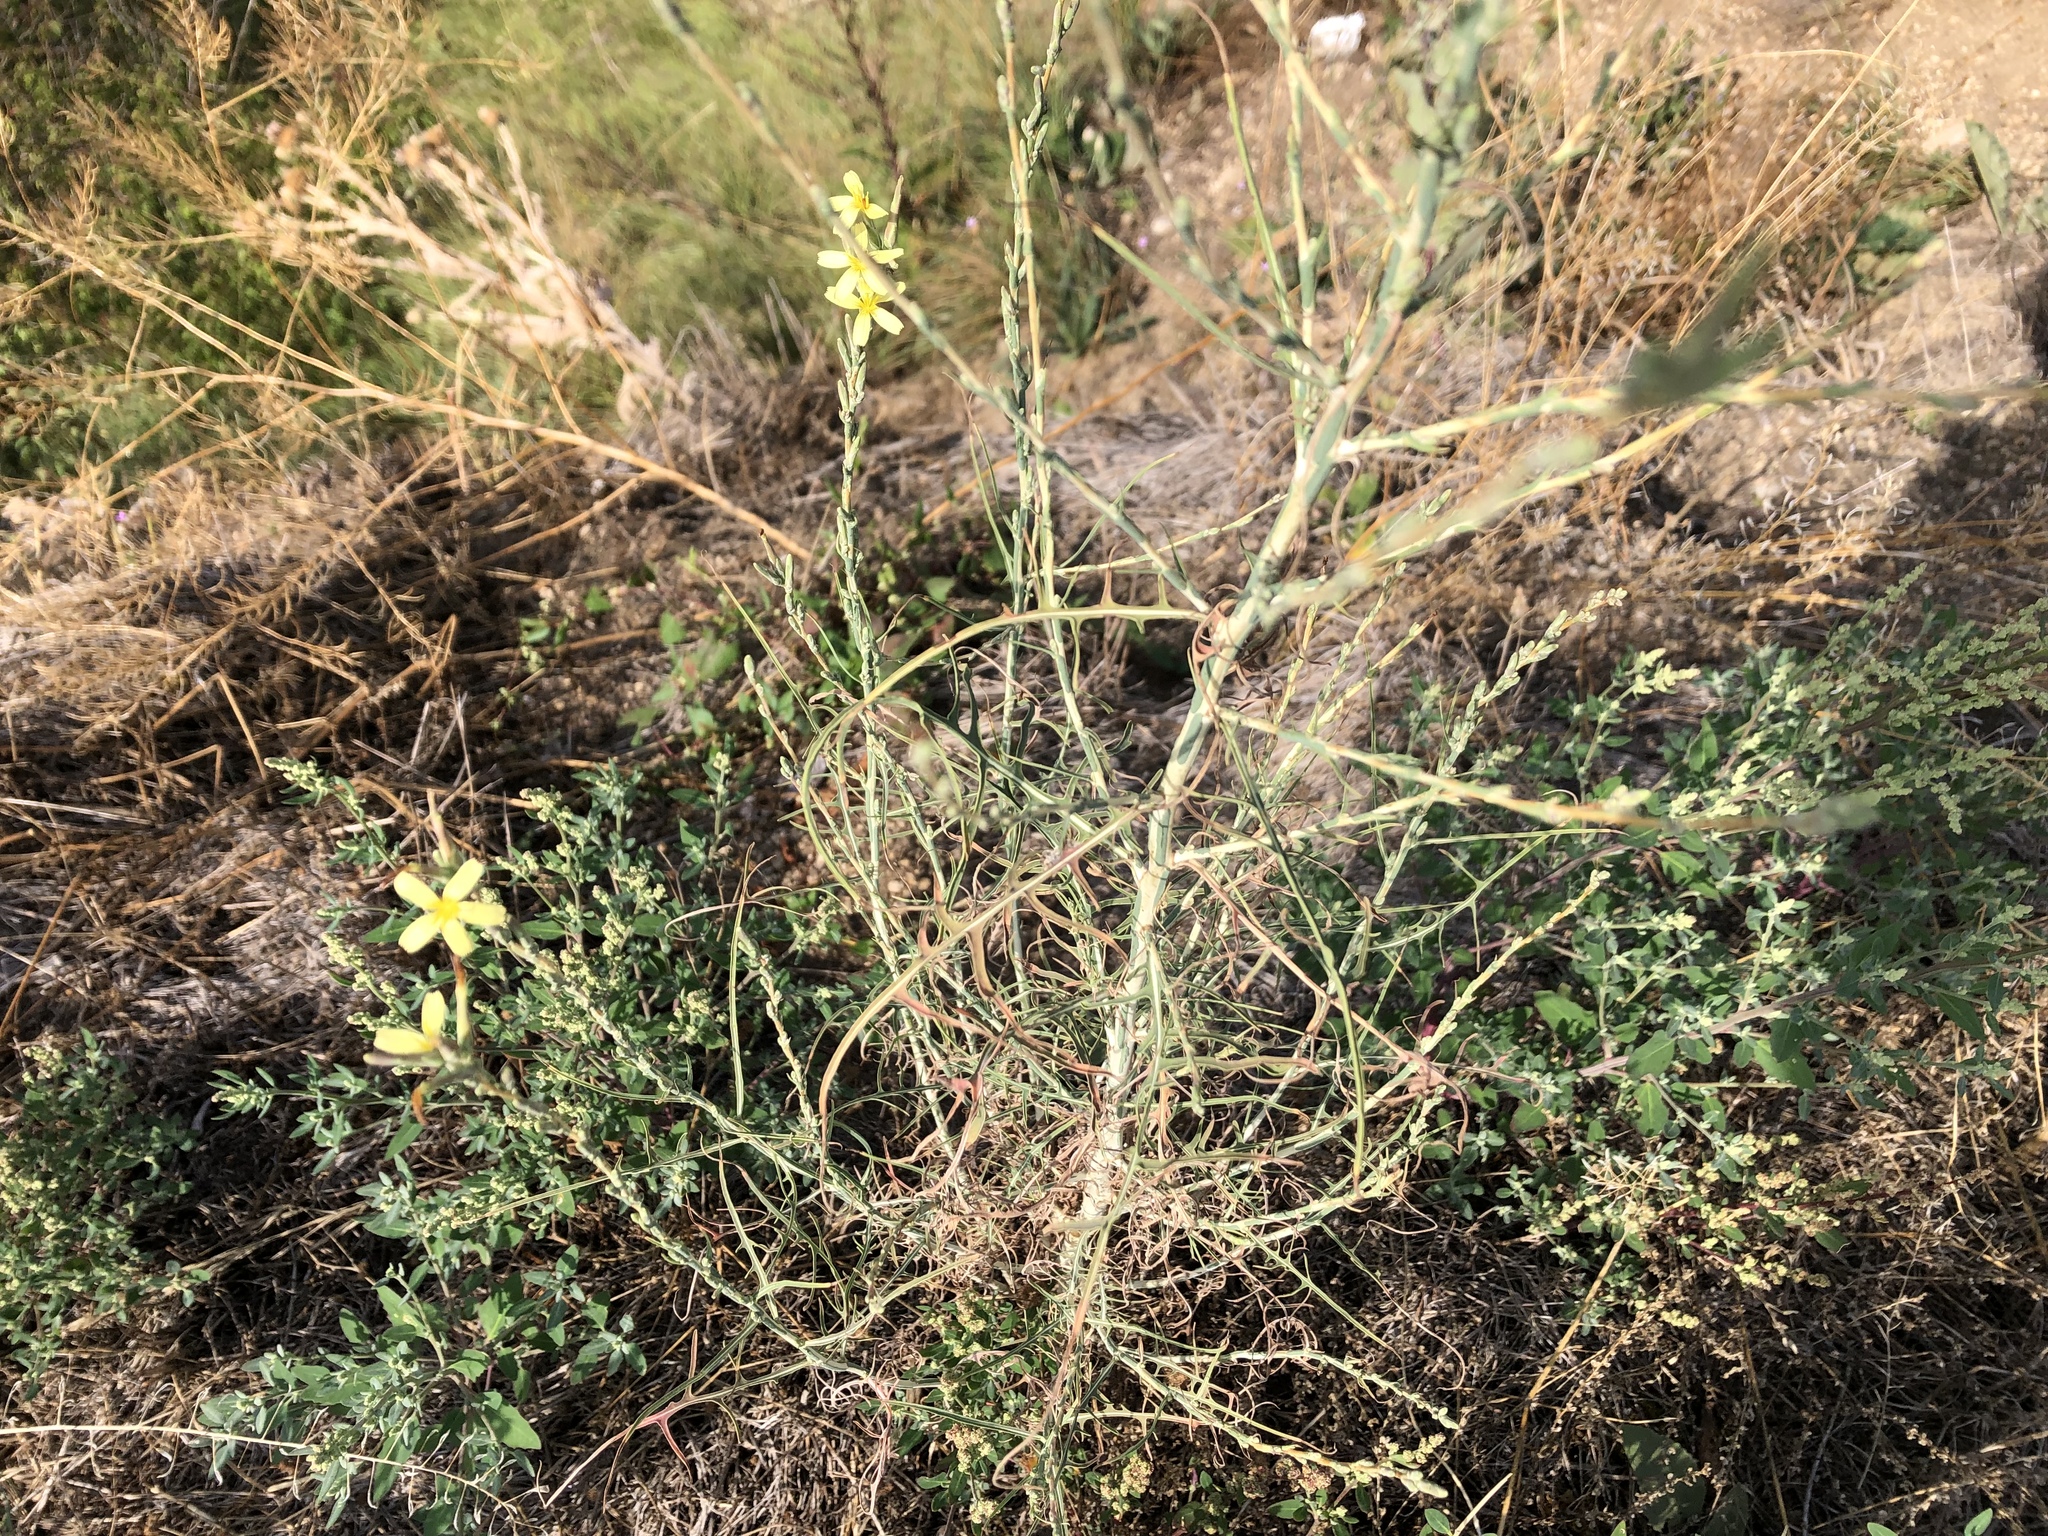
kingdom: Plantae
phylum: Tracheophyta
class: Magnoliopsida
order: Asterales
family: Asteraceae
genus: Lactuca
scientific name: Lactuca viminea
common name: Pliant lettuce
